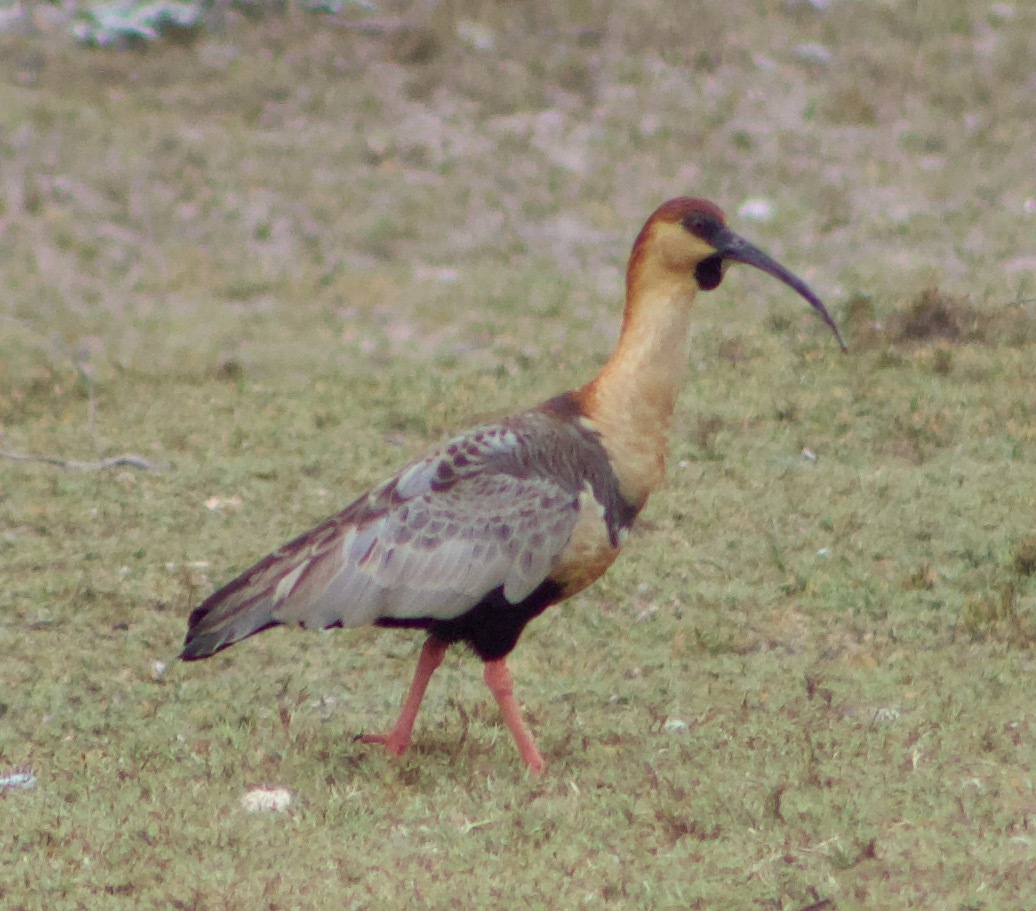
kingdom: Animalia
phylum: Chordata
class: Aves
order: Pelecaniformes
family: Threskiornithidae
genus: Theristicus
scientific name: Theristicus melanopis
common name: Black-faced ibis
